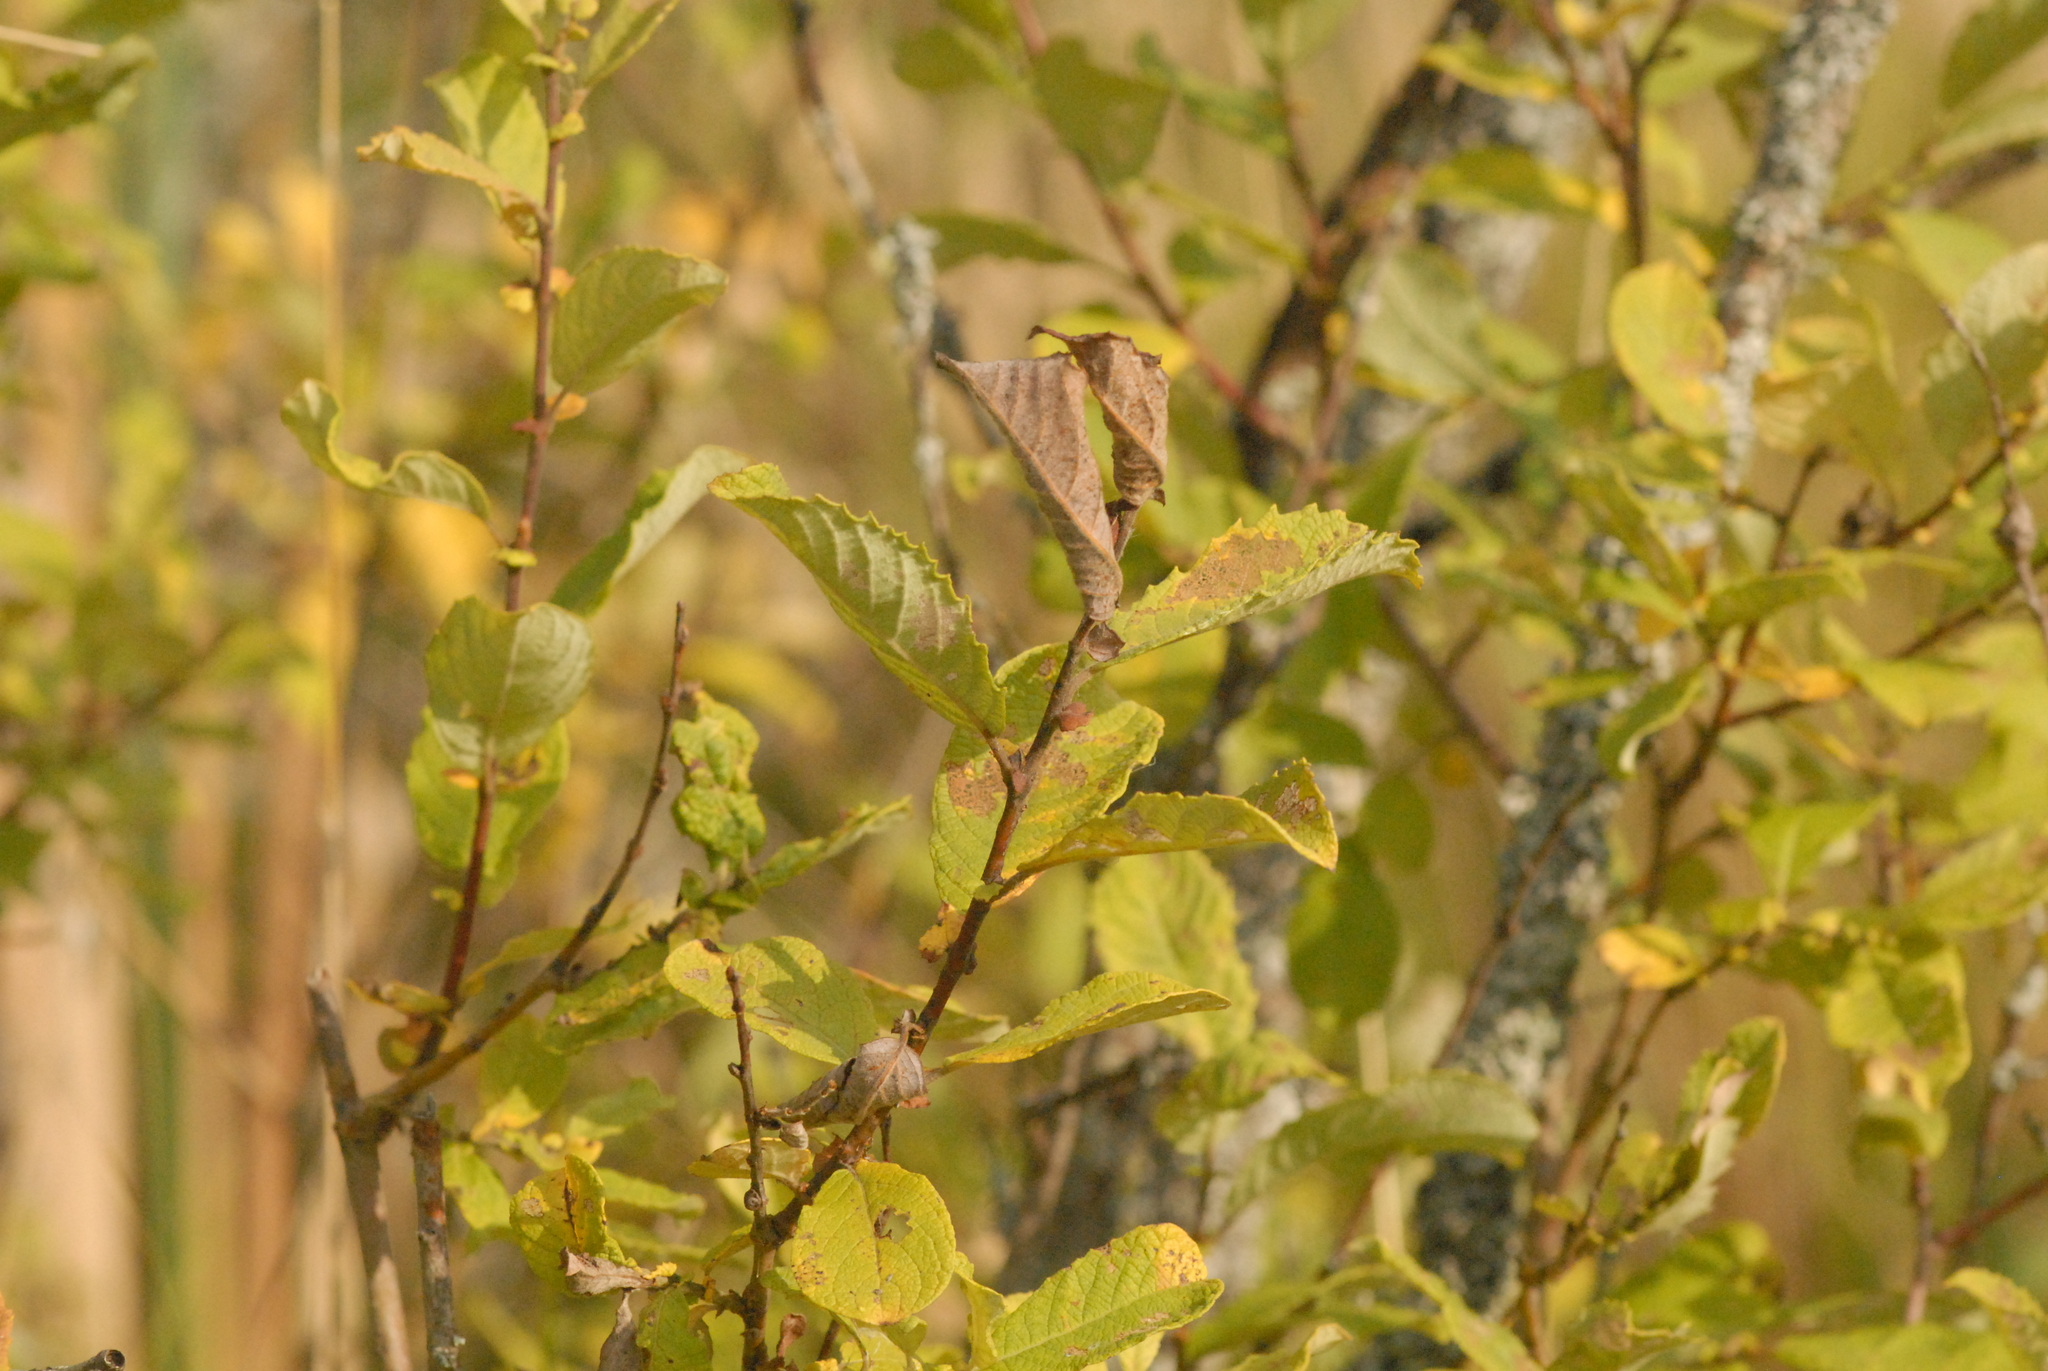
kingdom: Plantae
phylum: Tracheophyta
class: Magnoliopsida
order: Malpighiales
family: Salicaceae
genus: Salix
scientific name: Salix aurita
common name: Eared willow
